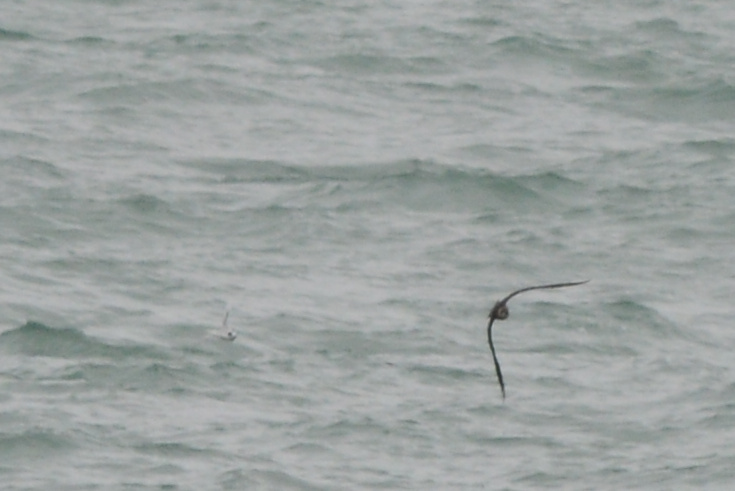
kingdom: Animalia
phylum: Chordata
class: Aves
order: Charadriiformes
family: Stercorariidae
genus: Stercorarius
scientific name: Stercorarius parasiticus
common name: Parasitic jaeger
